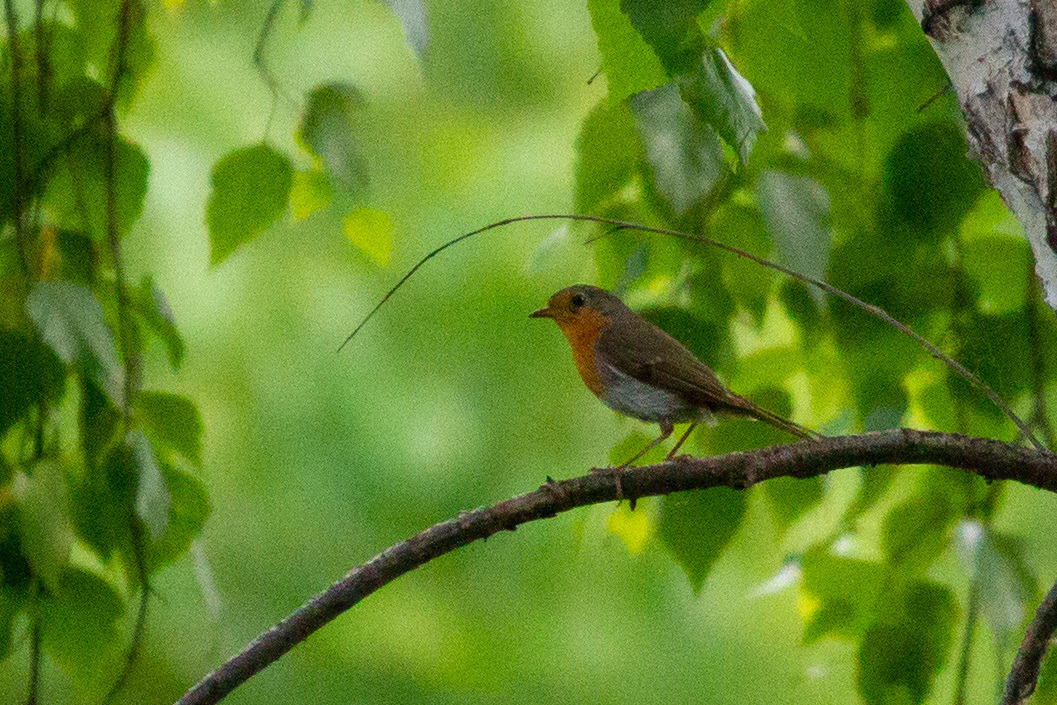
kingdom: Animalia
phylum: Chordata
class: Aves
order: Passeriformes
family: Muscicapidae
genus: Erithacus
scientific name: Erithacus rubecula
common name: European robin
